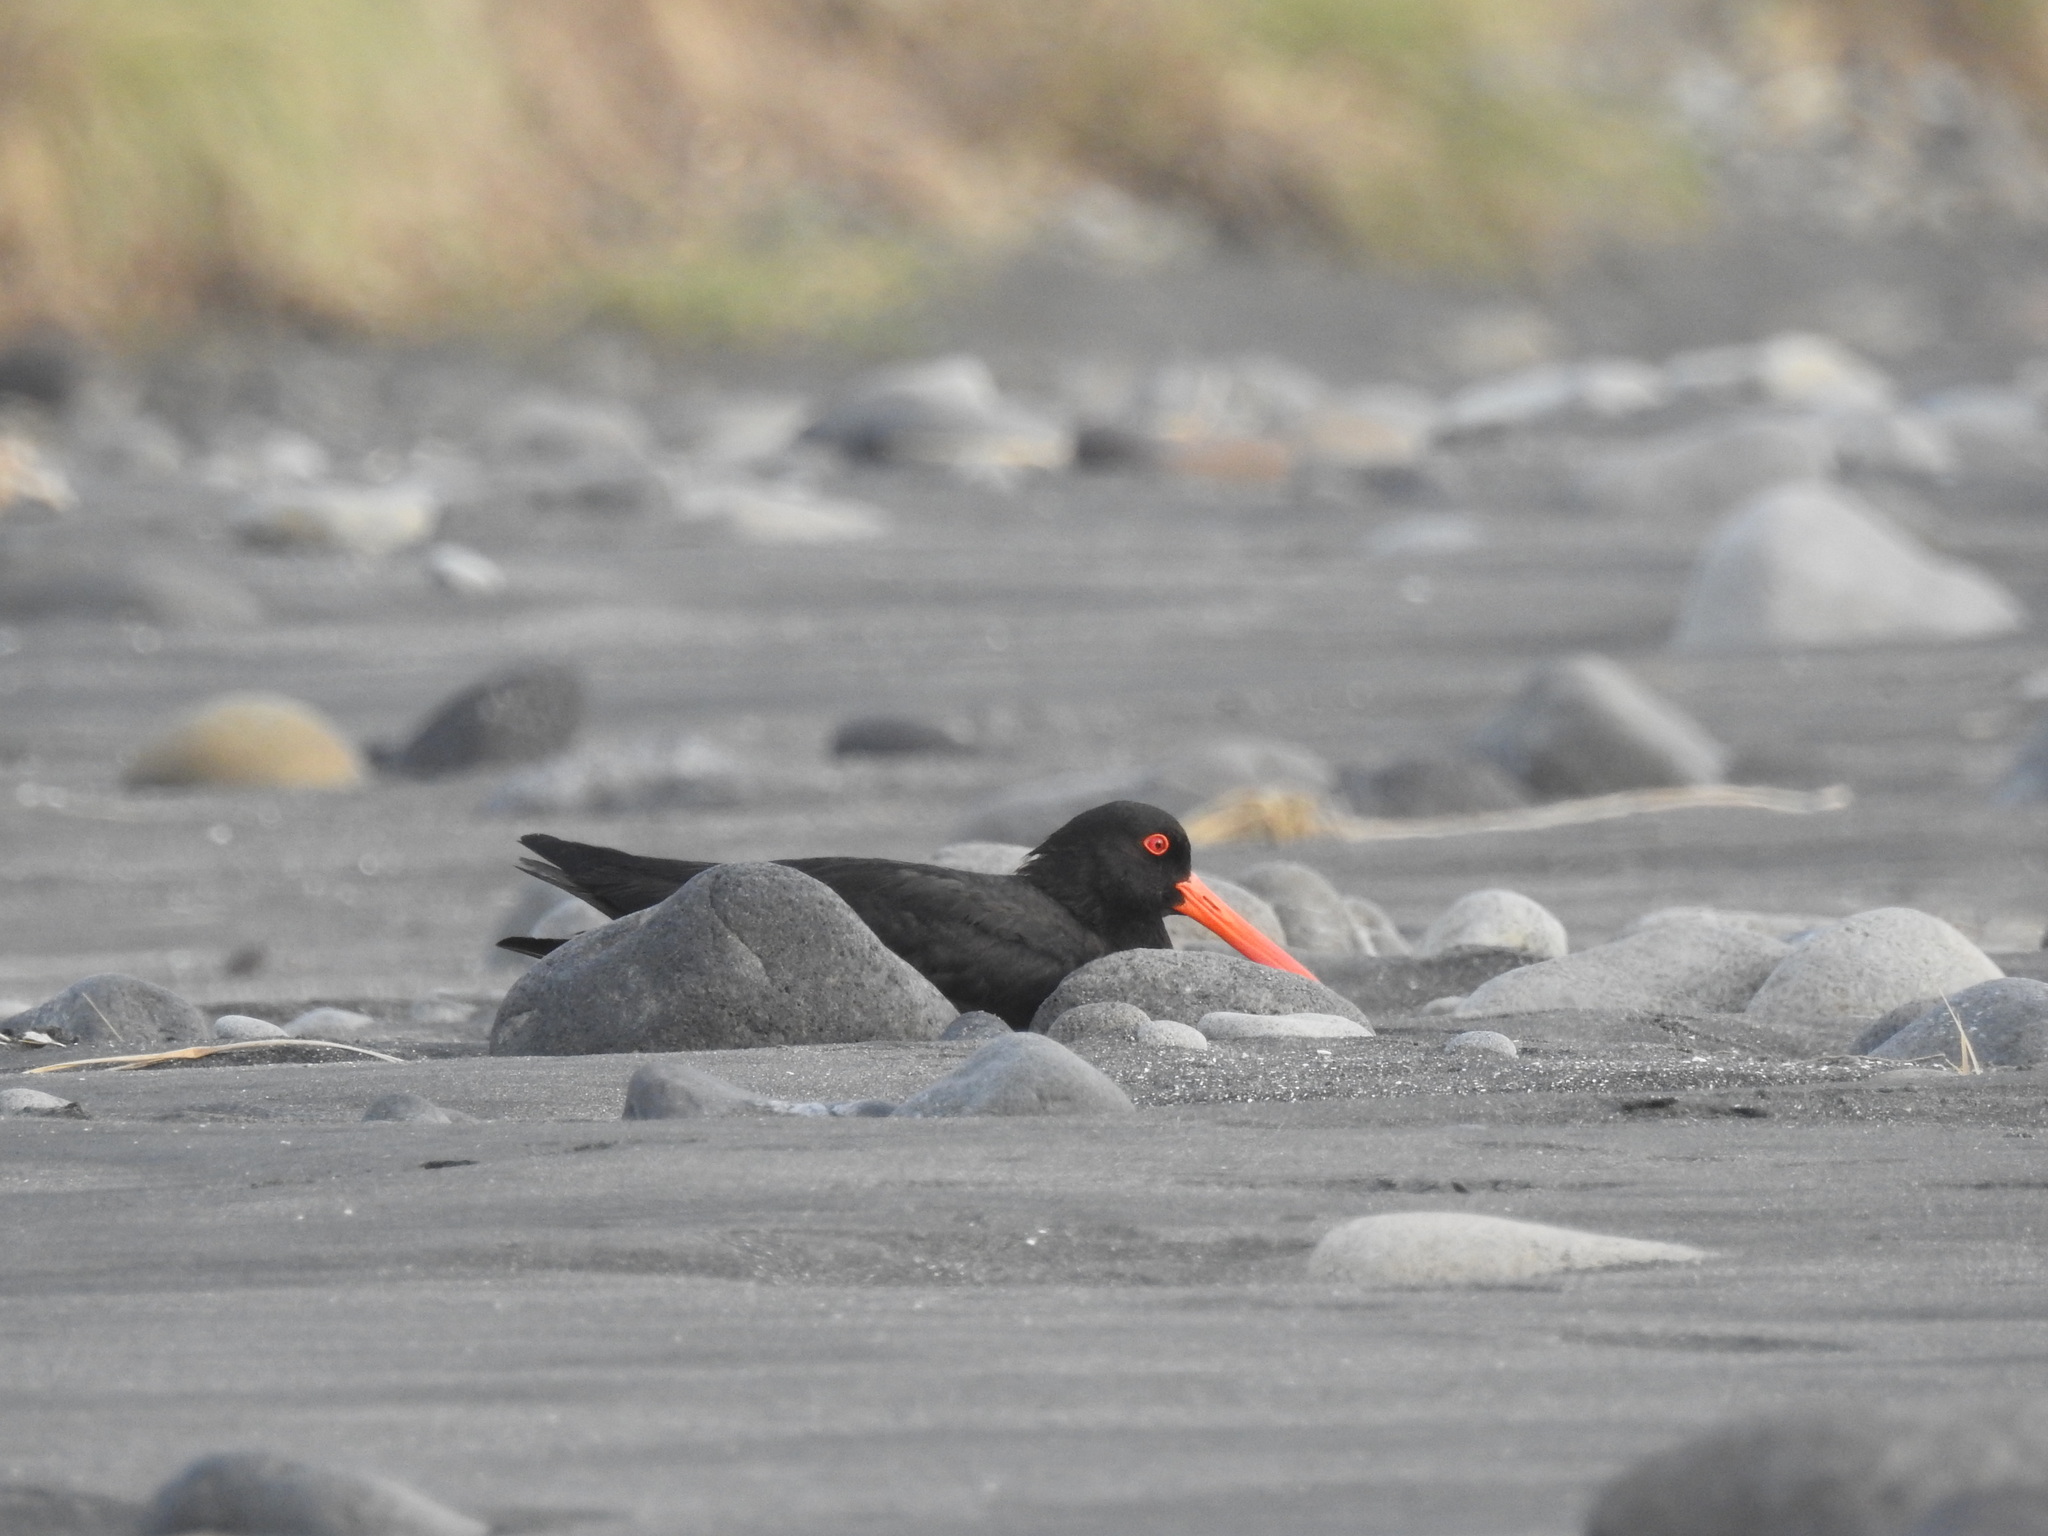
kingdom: Animalia
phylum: Chordata
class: Aves
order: Charadriiformes
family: Haematopodidae
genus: Haematopus
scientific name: Haematopus unicolor
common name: Variable oystercatcher
